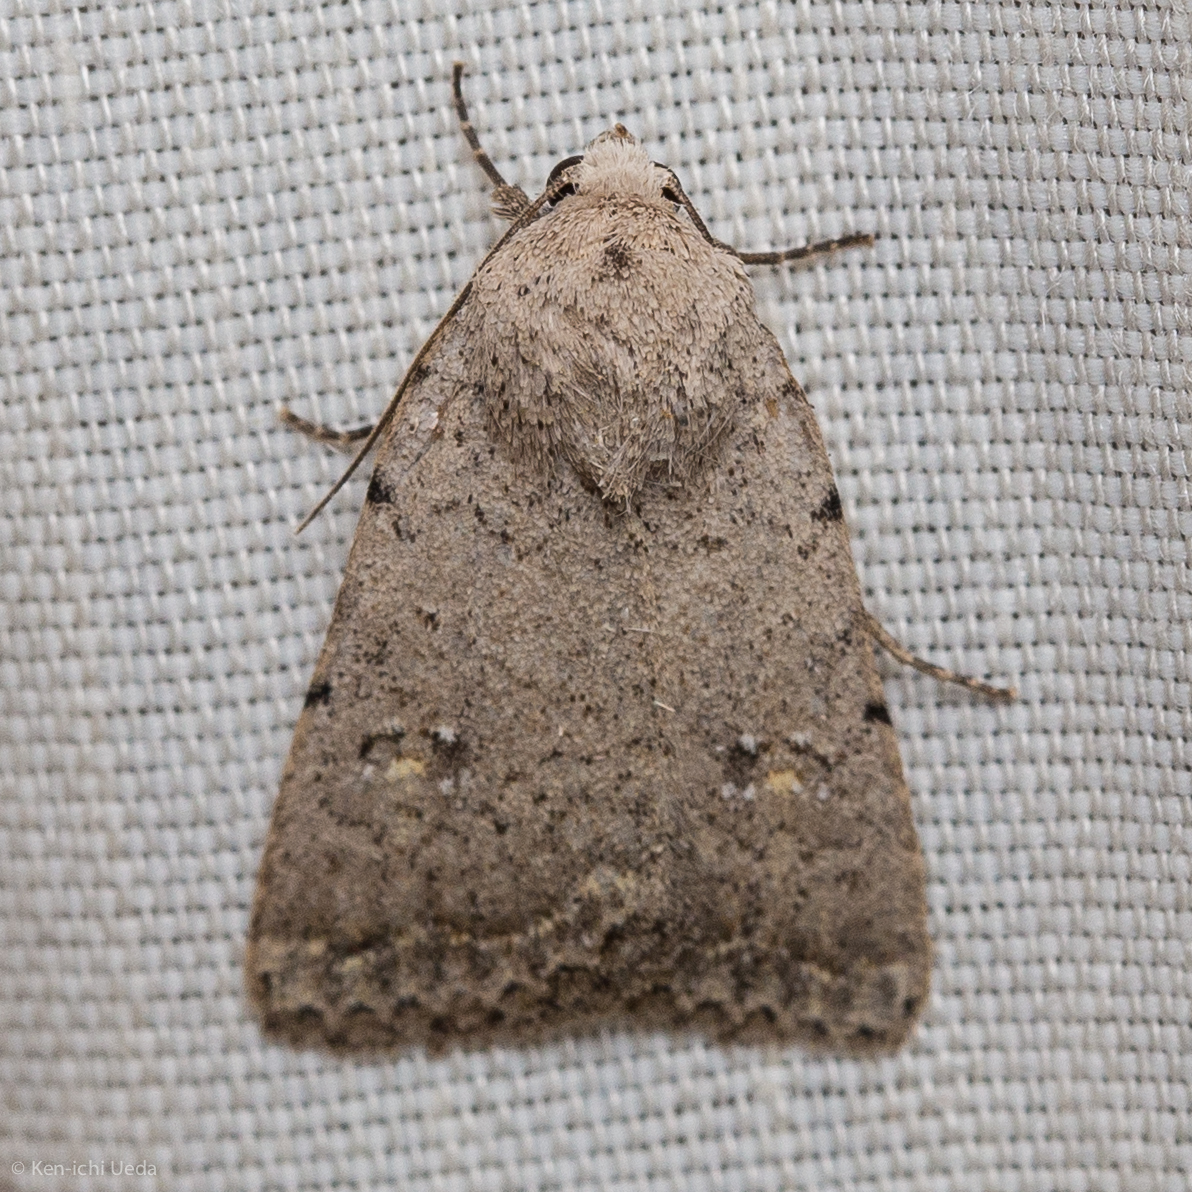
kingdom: Animalia
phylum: Arthropoda
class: Insecta
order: Lepidoptera
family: Noctuidae
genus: Caradrina
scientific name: Caradrina montana
